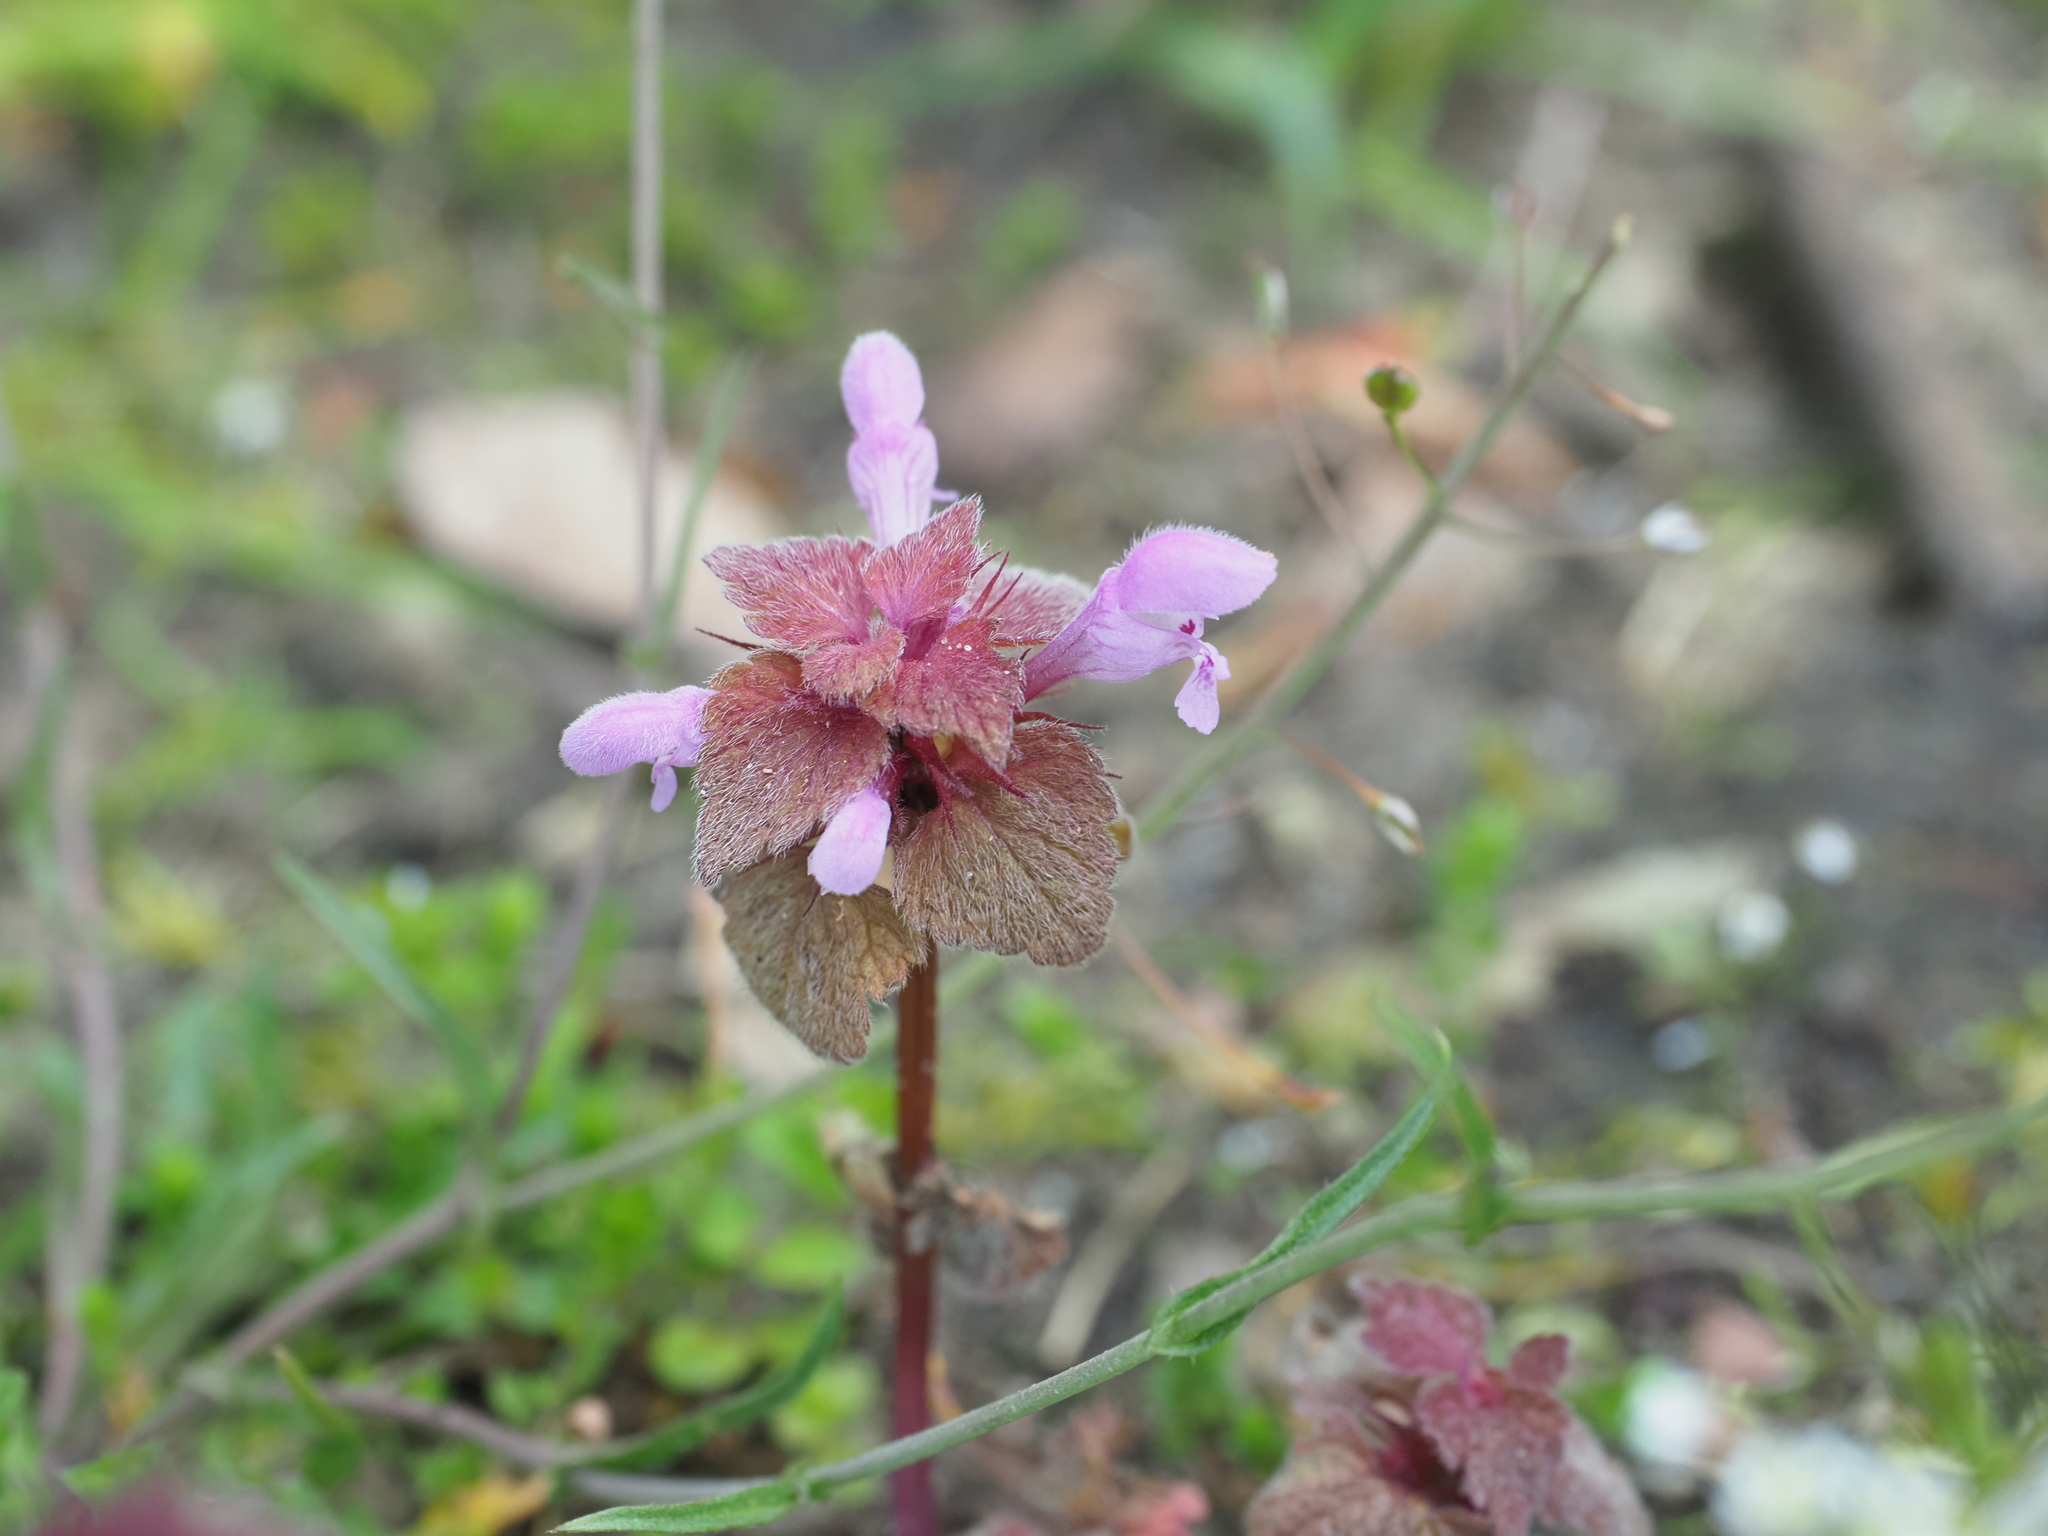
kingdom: Plantae
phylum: Tracheophyta
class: Magnoliopsida
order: Lamiales
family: Lamiaceae
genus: Lamium
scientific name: Lamium purpureum
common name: Red dead-nettle
